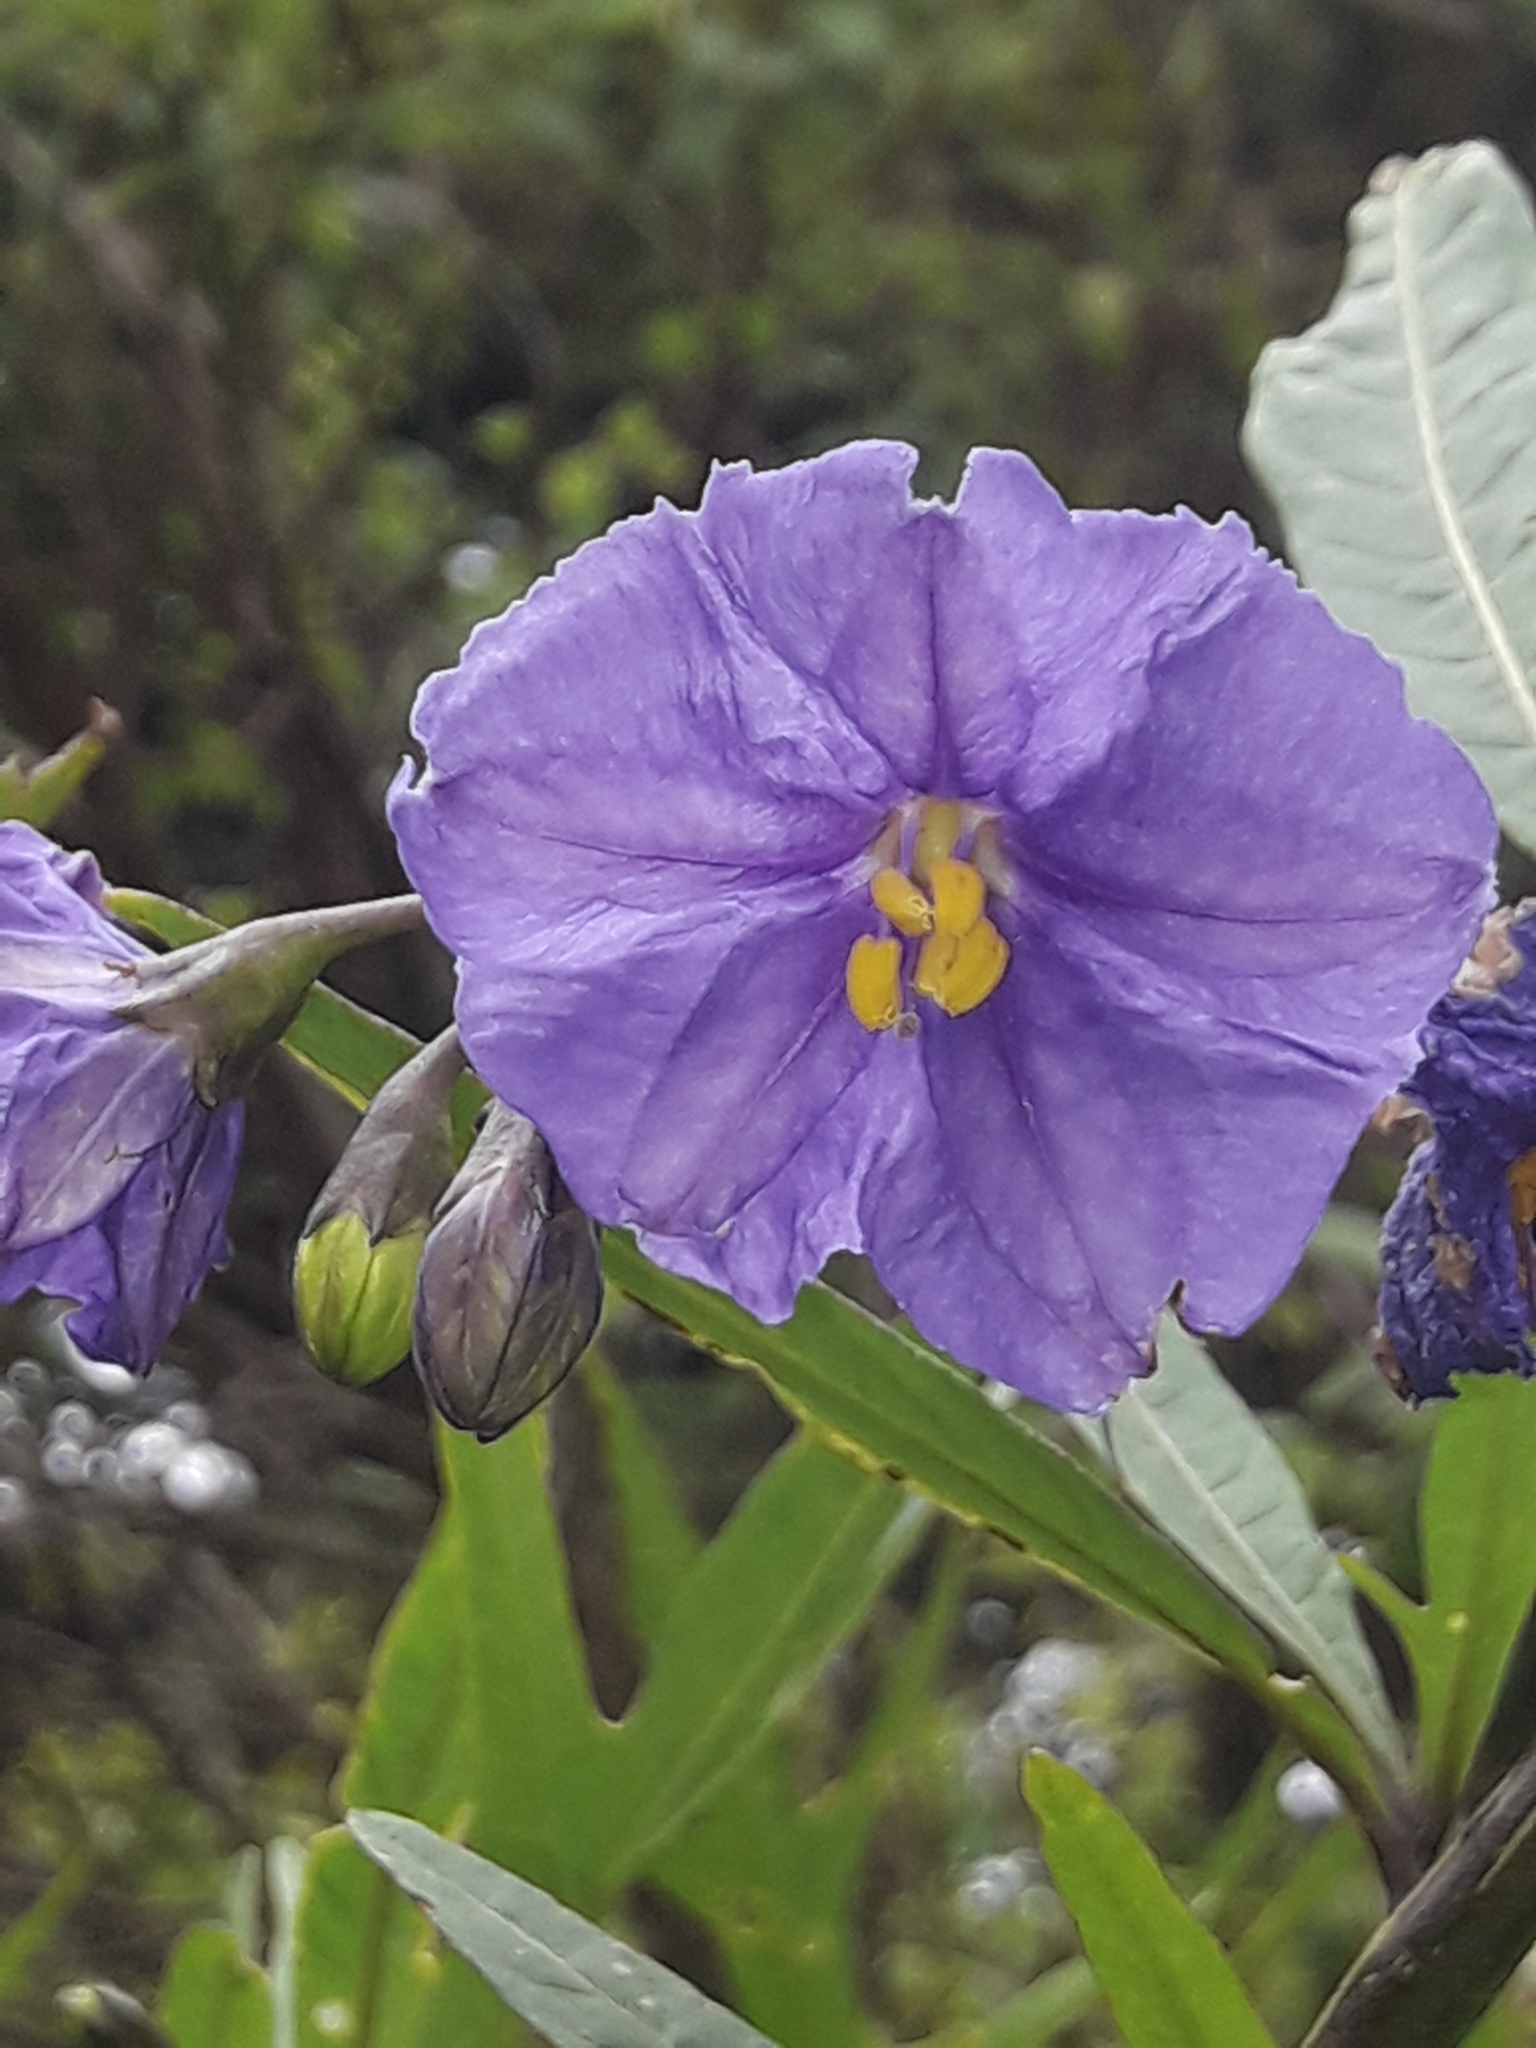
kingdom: Plantae
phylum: Tracheophyta
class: Magnoliopsida
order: Solanales
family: Solanaceae
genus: Solanum
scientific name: Solanum laciniatum
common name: Kangaroo-apple
